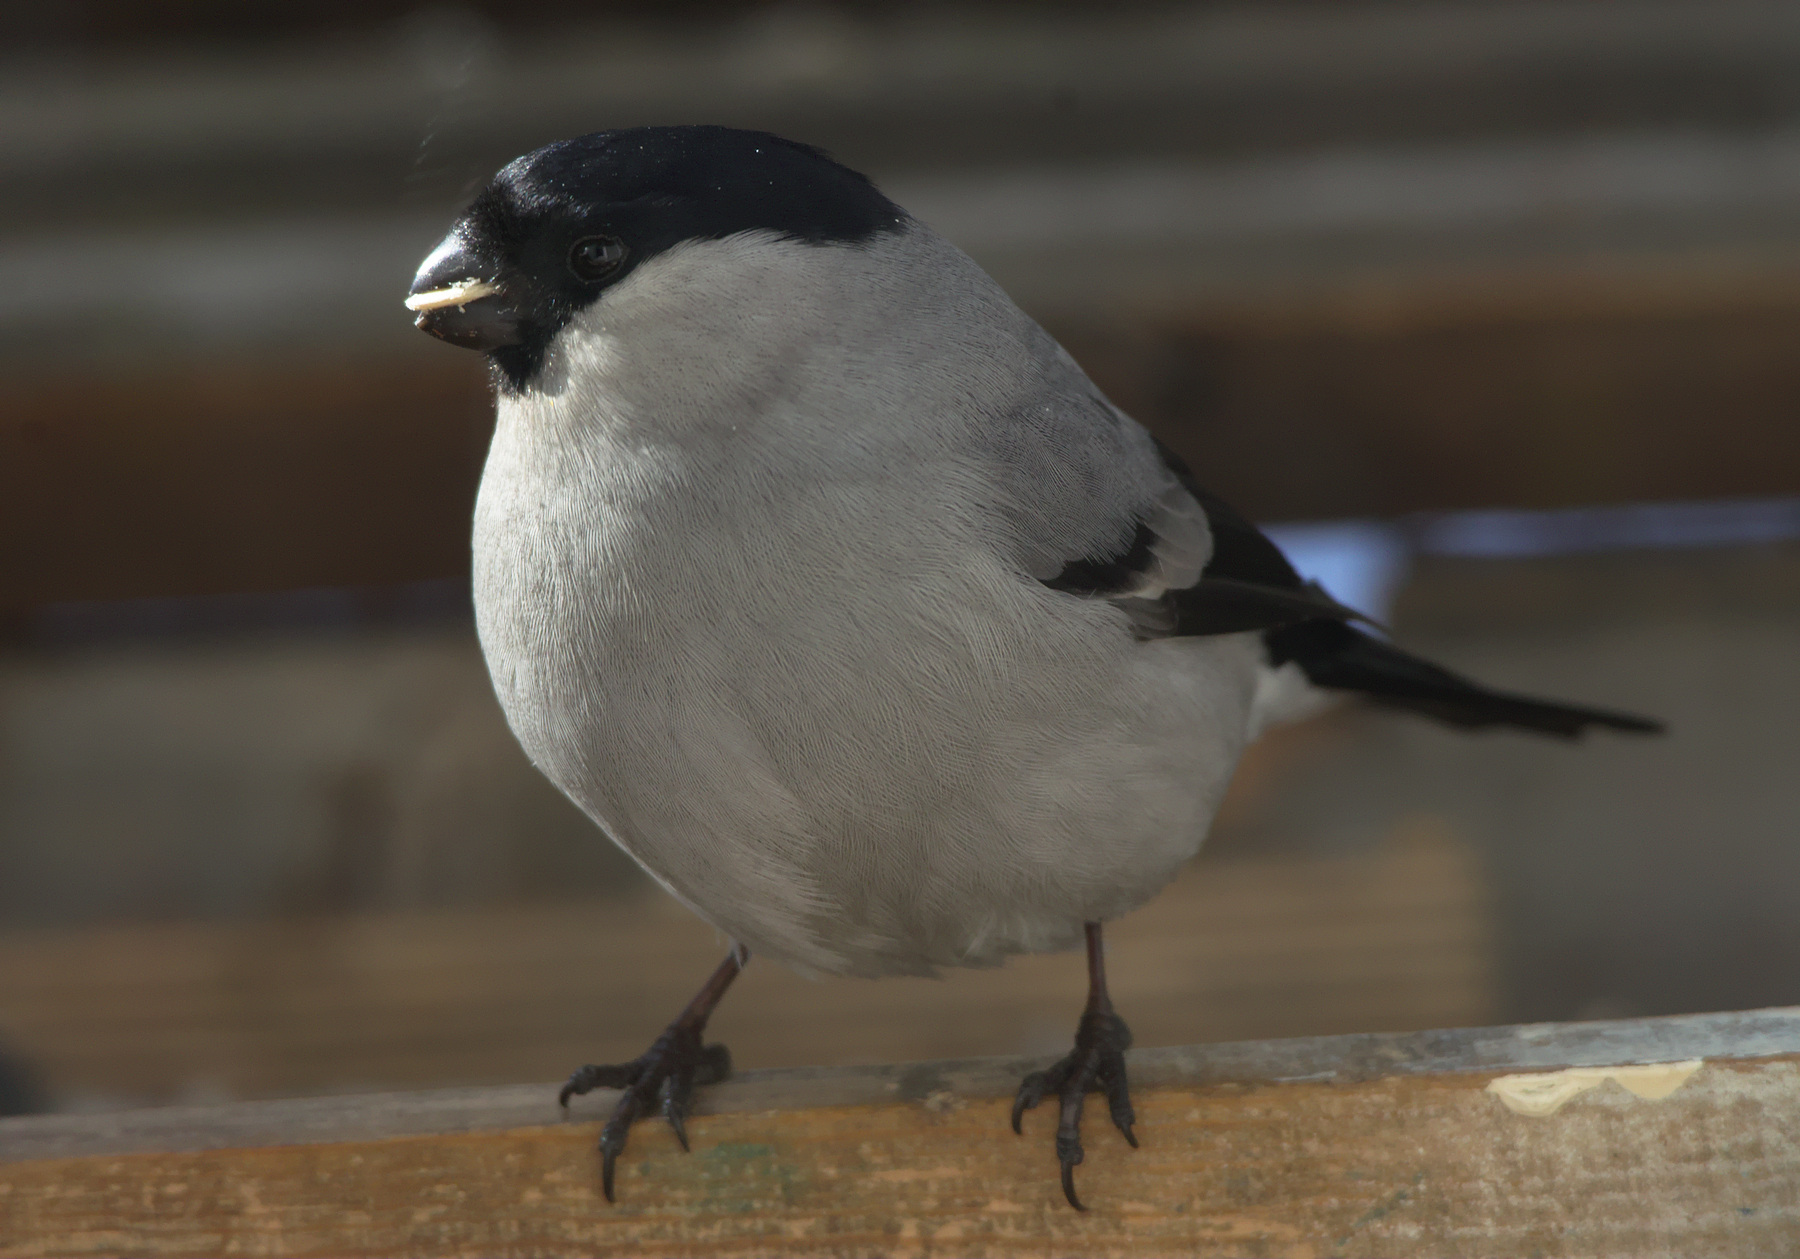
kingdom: Animalia
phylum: Chordata
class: Aves
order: Passeriformes
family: Fringillidae
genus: Pyrrhula
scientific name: Pyrrhula pyrrhula
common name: Eurasian bullfinch
